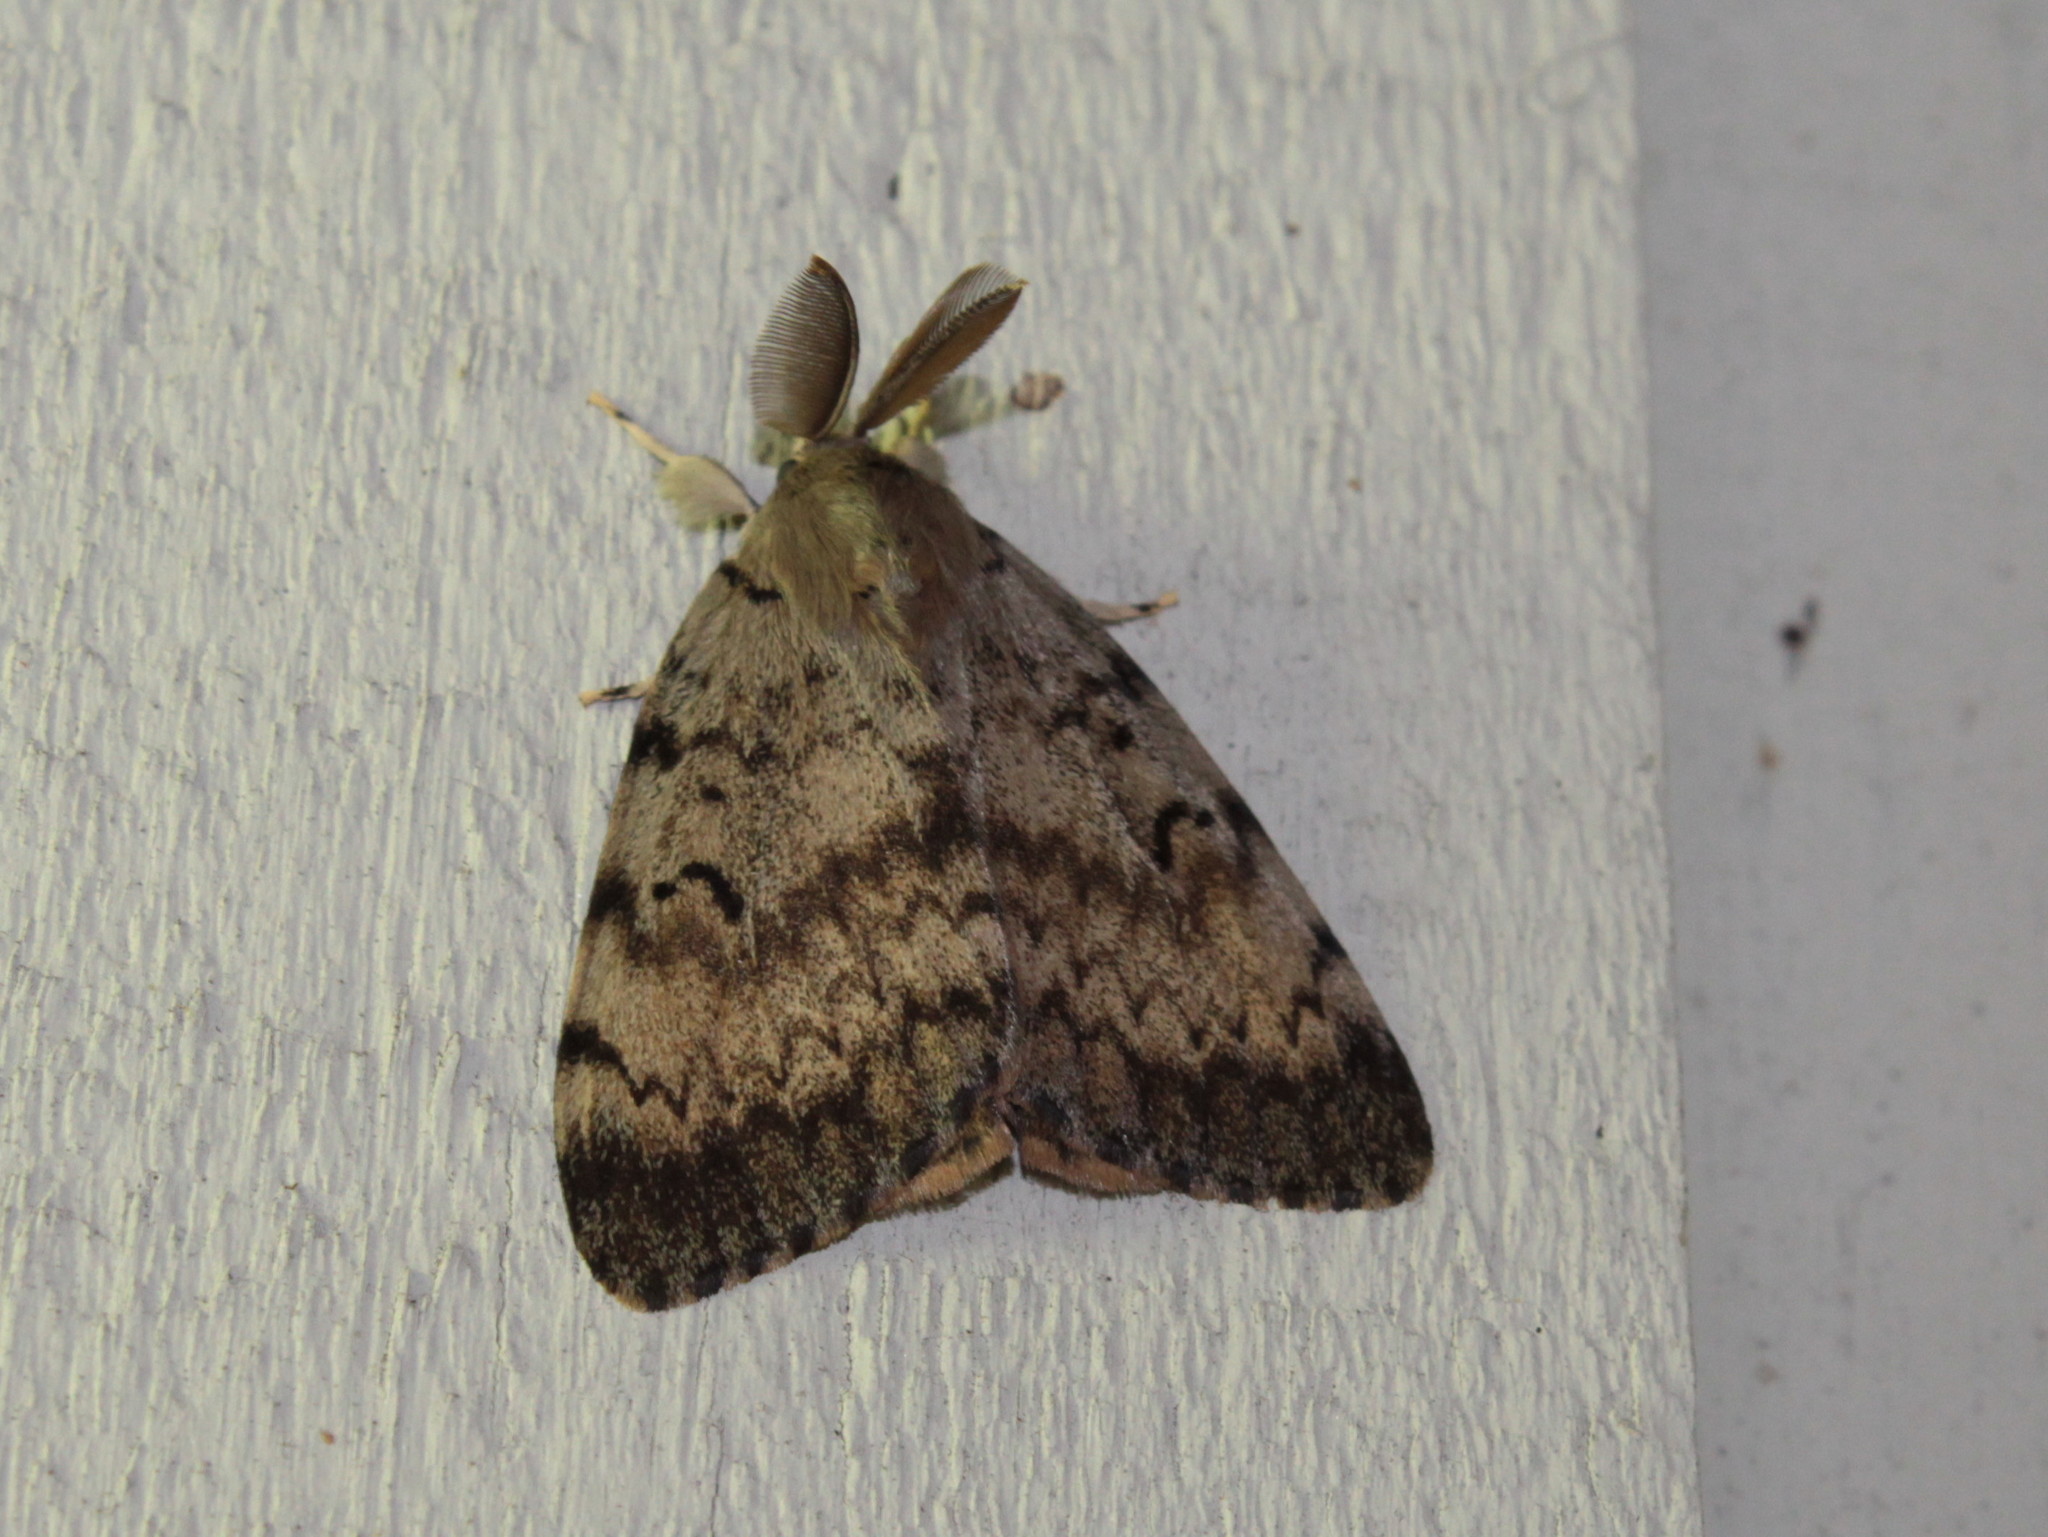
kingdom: Animalia
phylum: Arthropoda
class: Insecta
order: Lepidoptera
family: Erebidae
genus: Lymantria
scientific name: Lymantria dispar
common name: Gypsy moth
